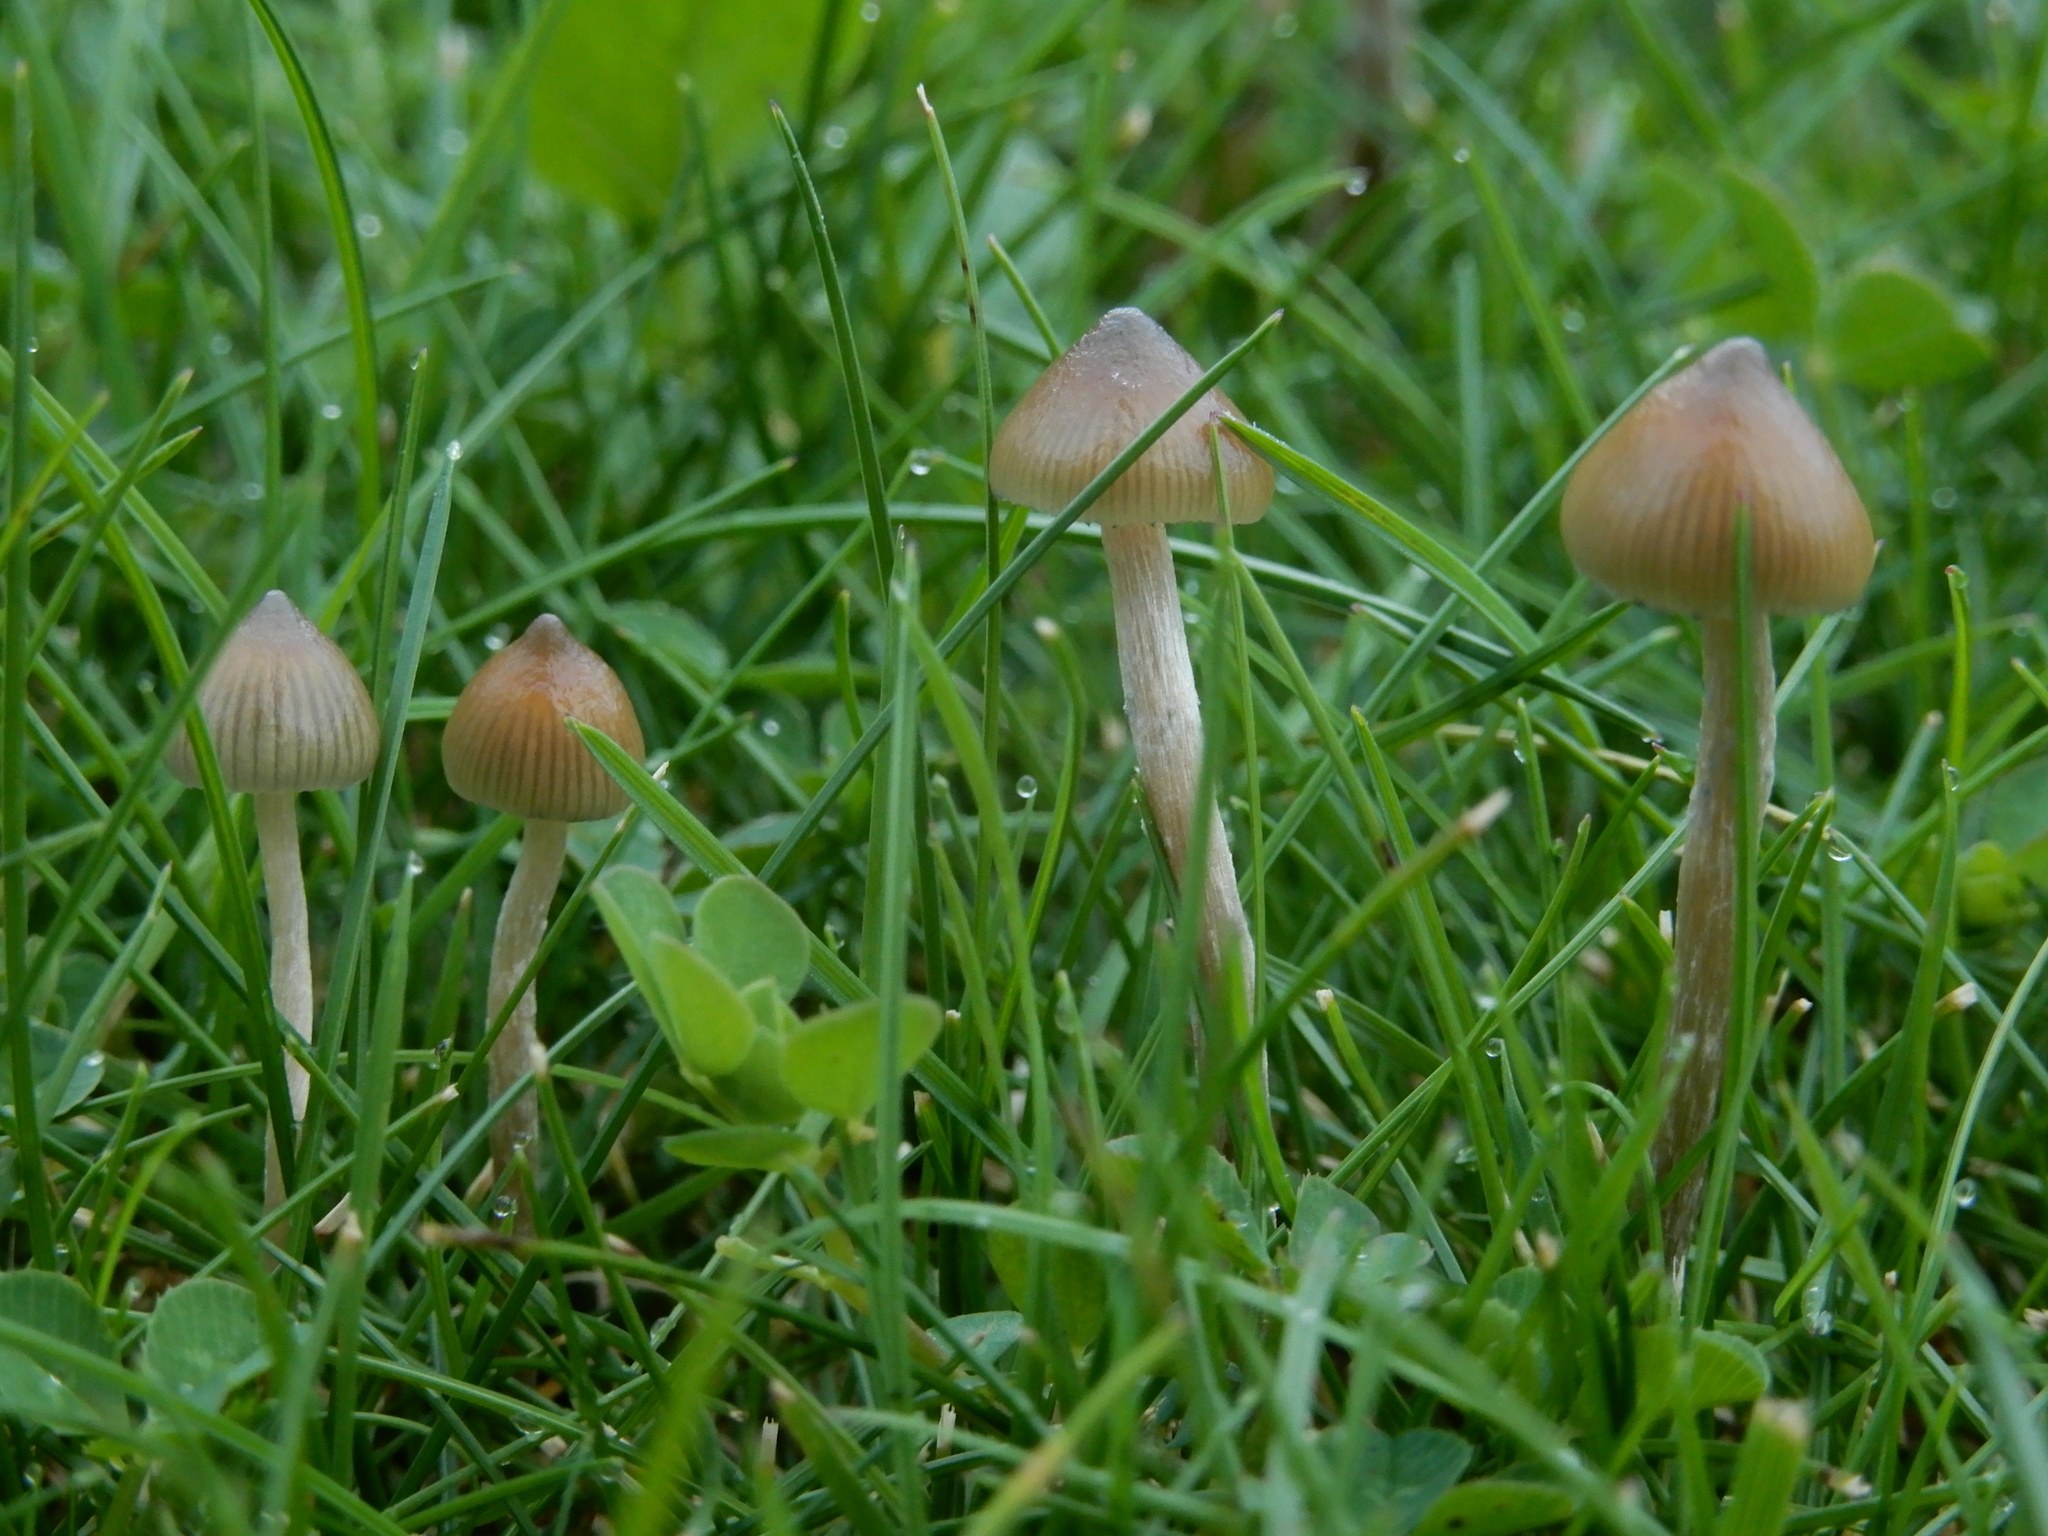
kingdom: Fungi
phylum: Basidiomycota
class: Agaricomycetes
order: Agaricales
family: Hymenogastraceae
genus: Psilocybe
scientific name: Psilocybe semilanceata
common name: Liberty cap
